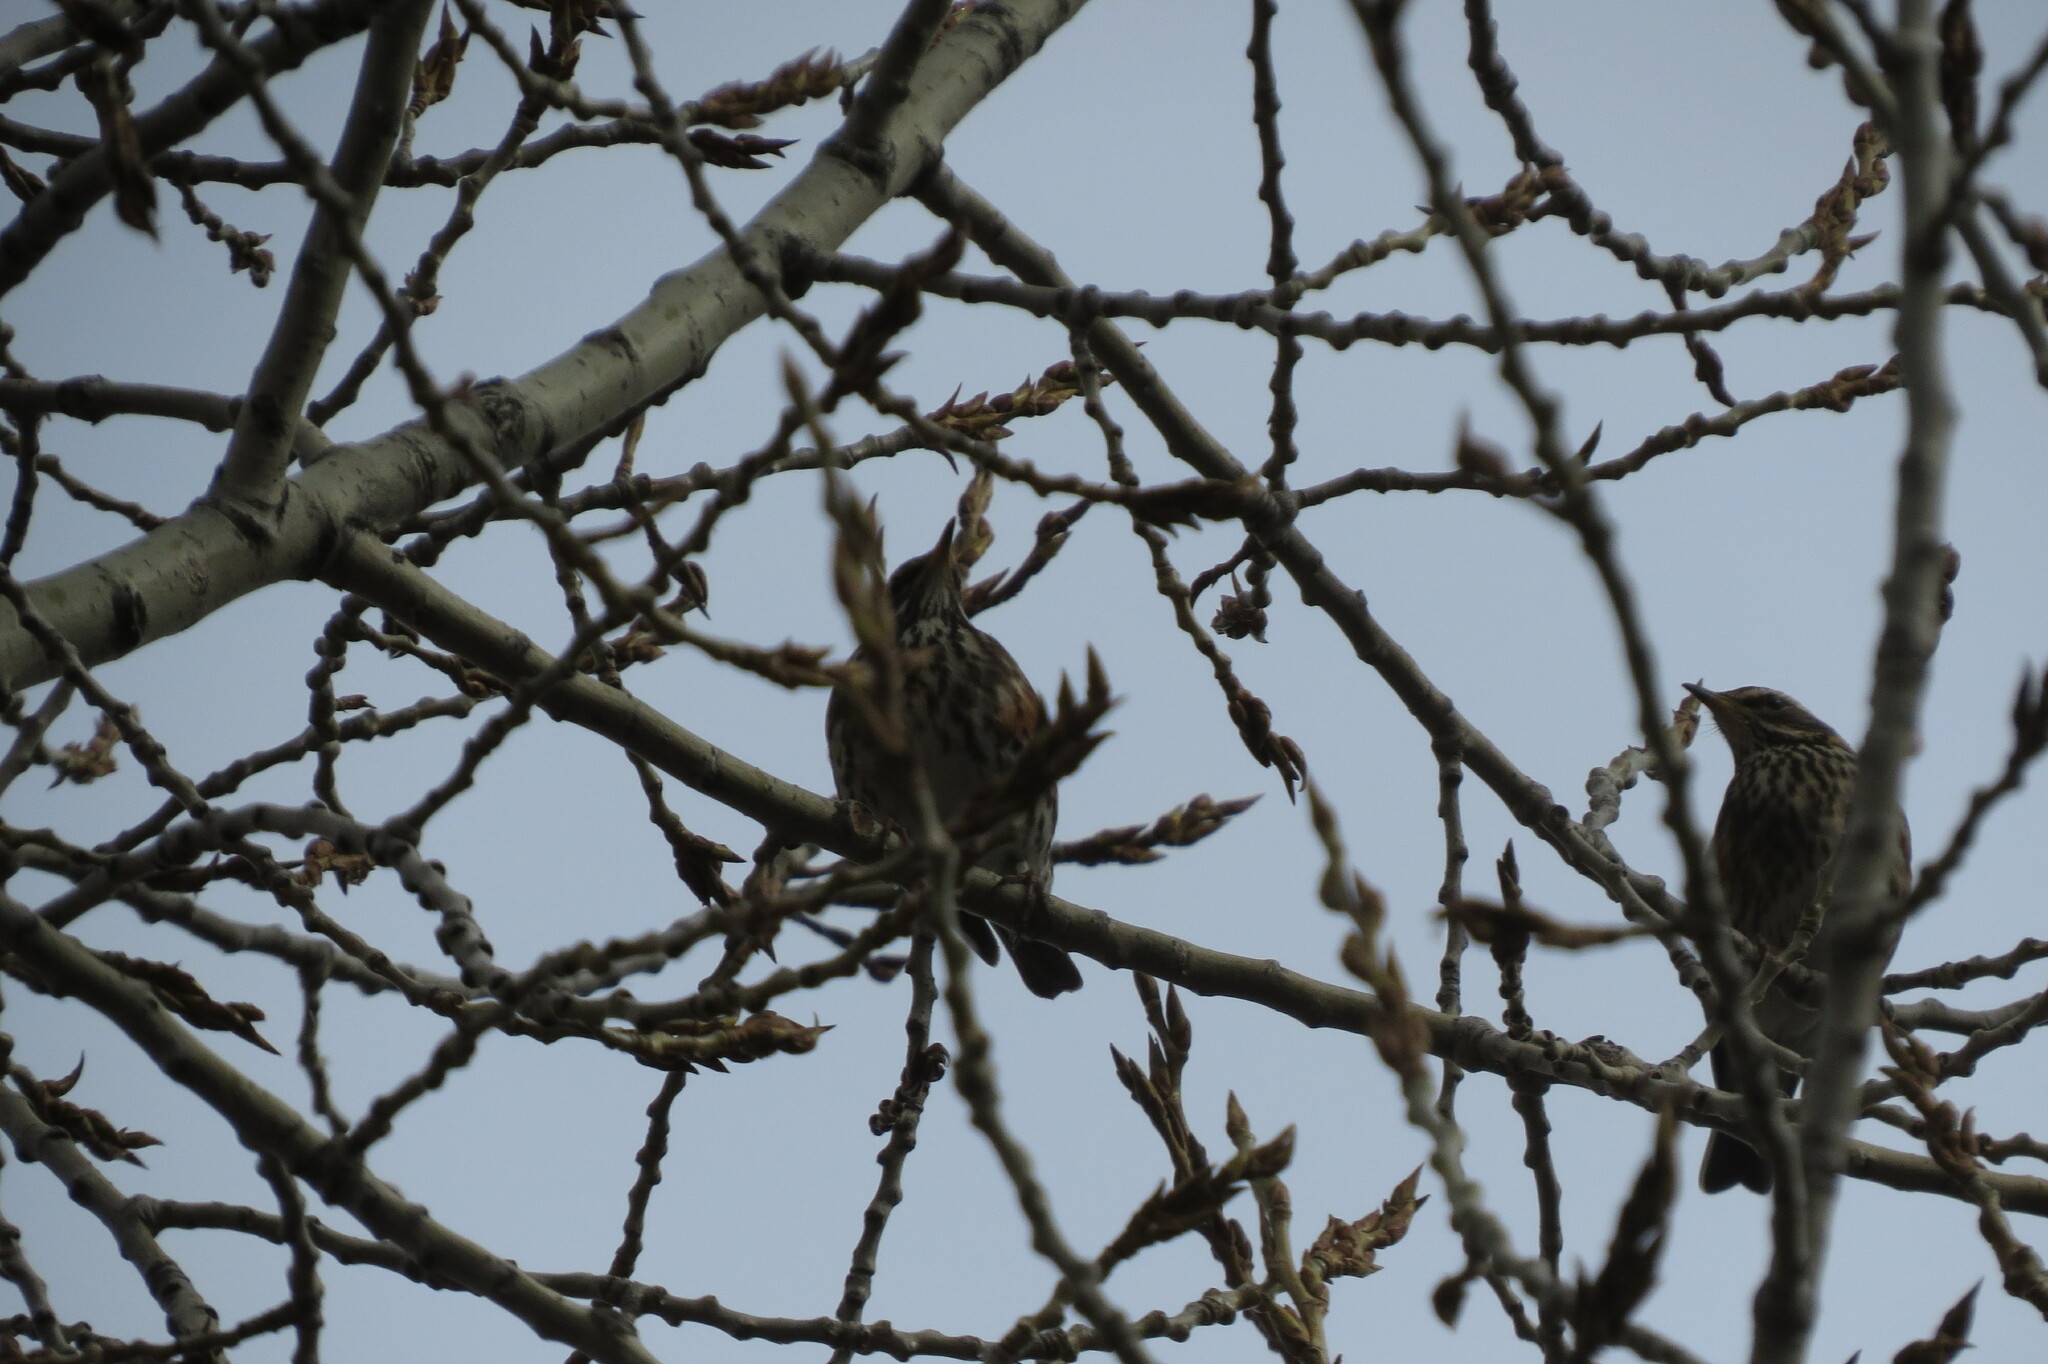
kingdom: Animalia
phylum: Chordata
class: Aves
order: Passeriformes
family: Turdidae
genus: Turdus
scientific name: Turdus iliacus
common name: Redwing
